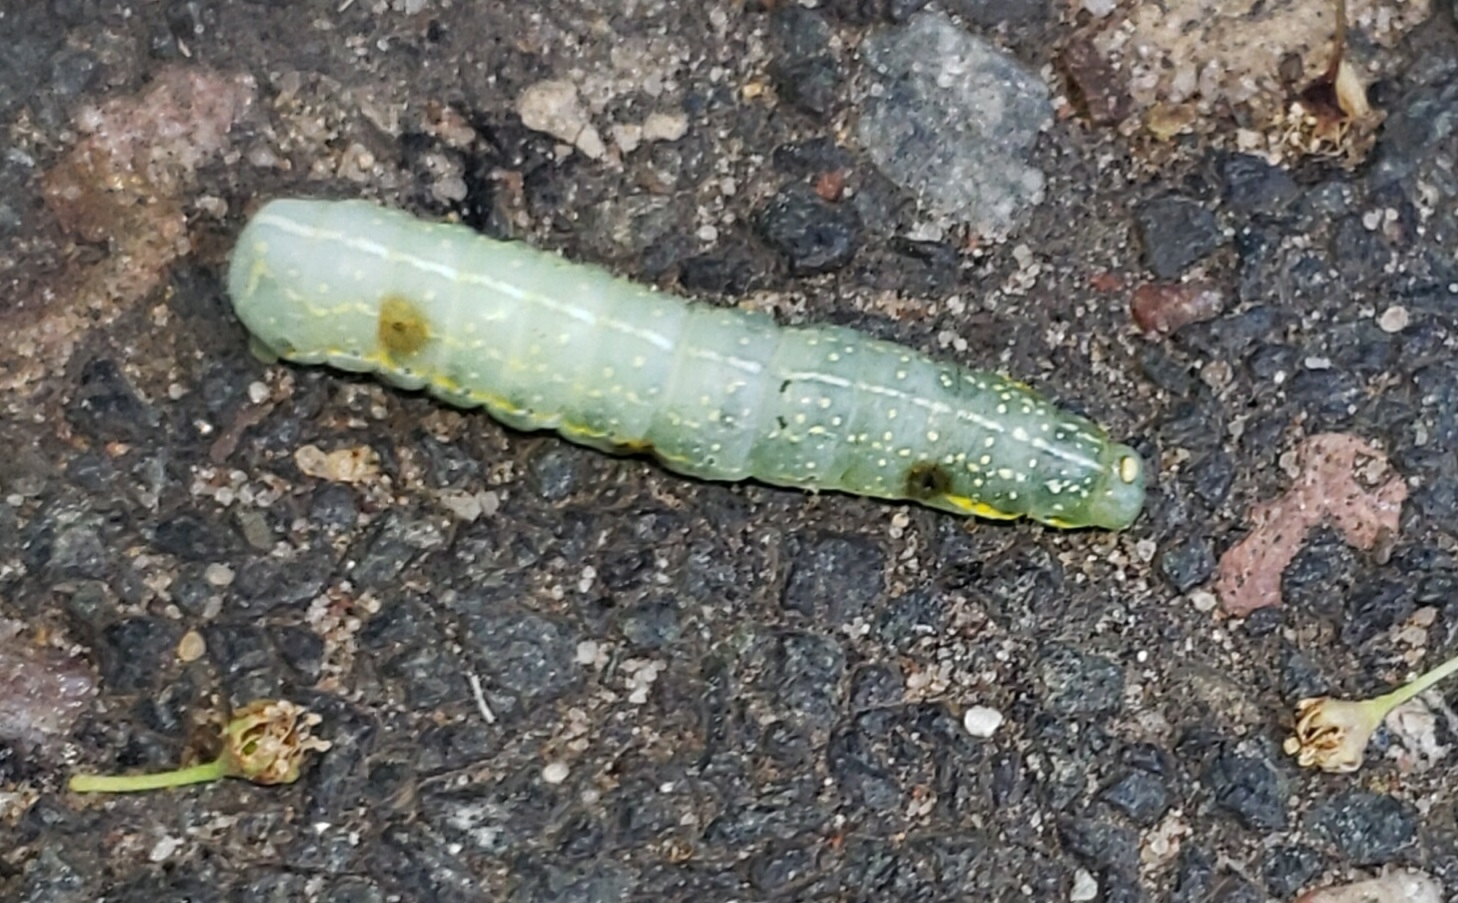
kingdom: Animalia
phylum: Arthropoda
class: Insecta
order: Lepidoptera
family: Noctuidae
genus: Amphipyra
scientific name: Amphipyra pyramidoides
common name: American copper underwing
